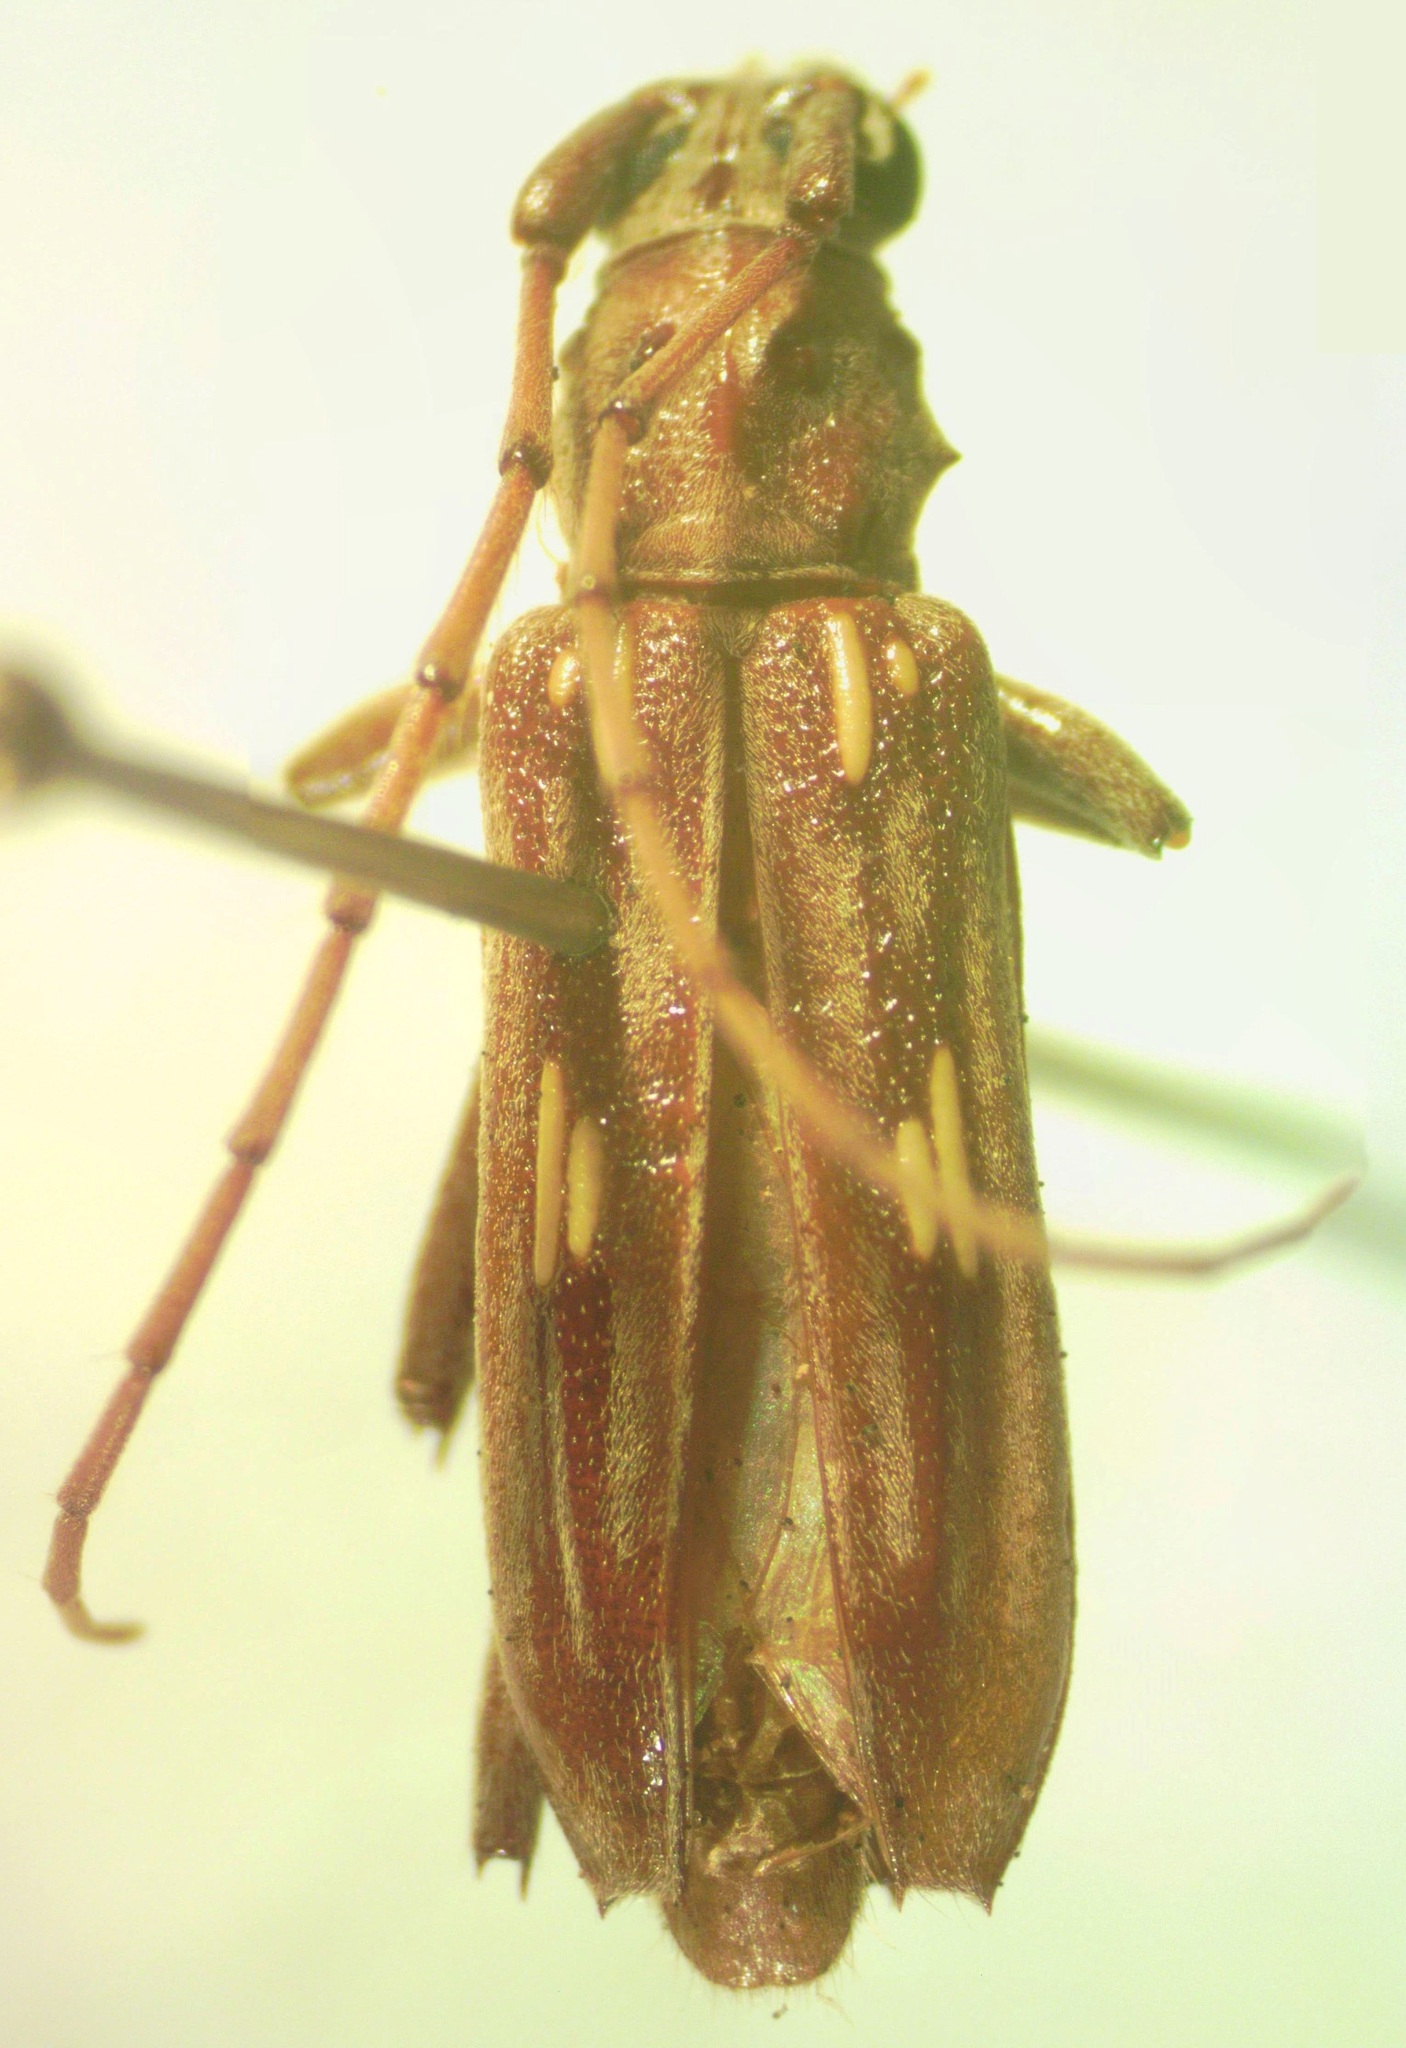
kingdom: Animalia
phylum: Arthropoda
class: Insecta
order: Coleoptera
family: Cerambycidae
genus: Eburia
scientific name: Eburia stigma
